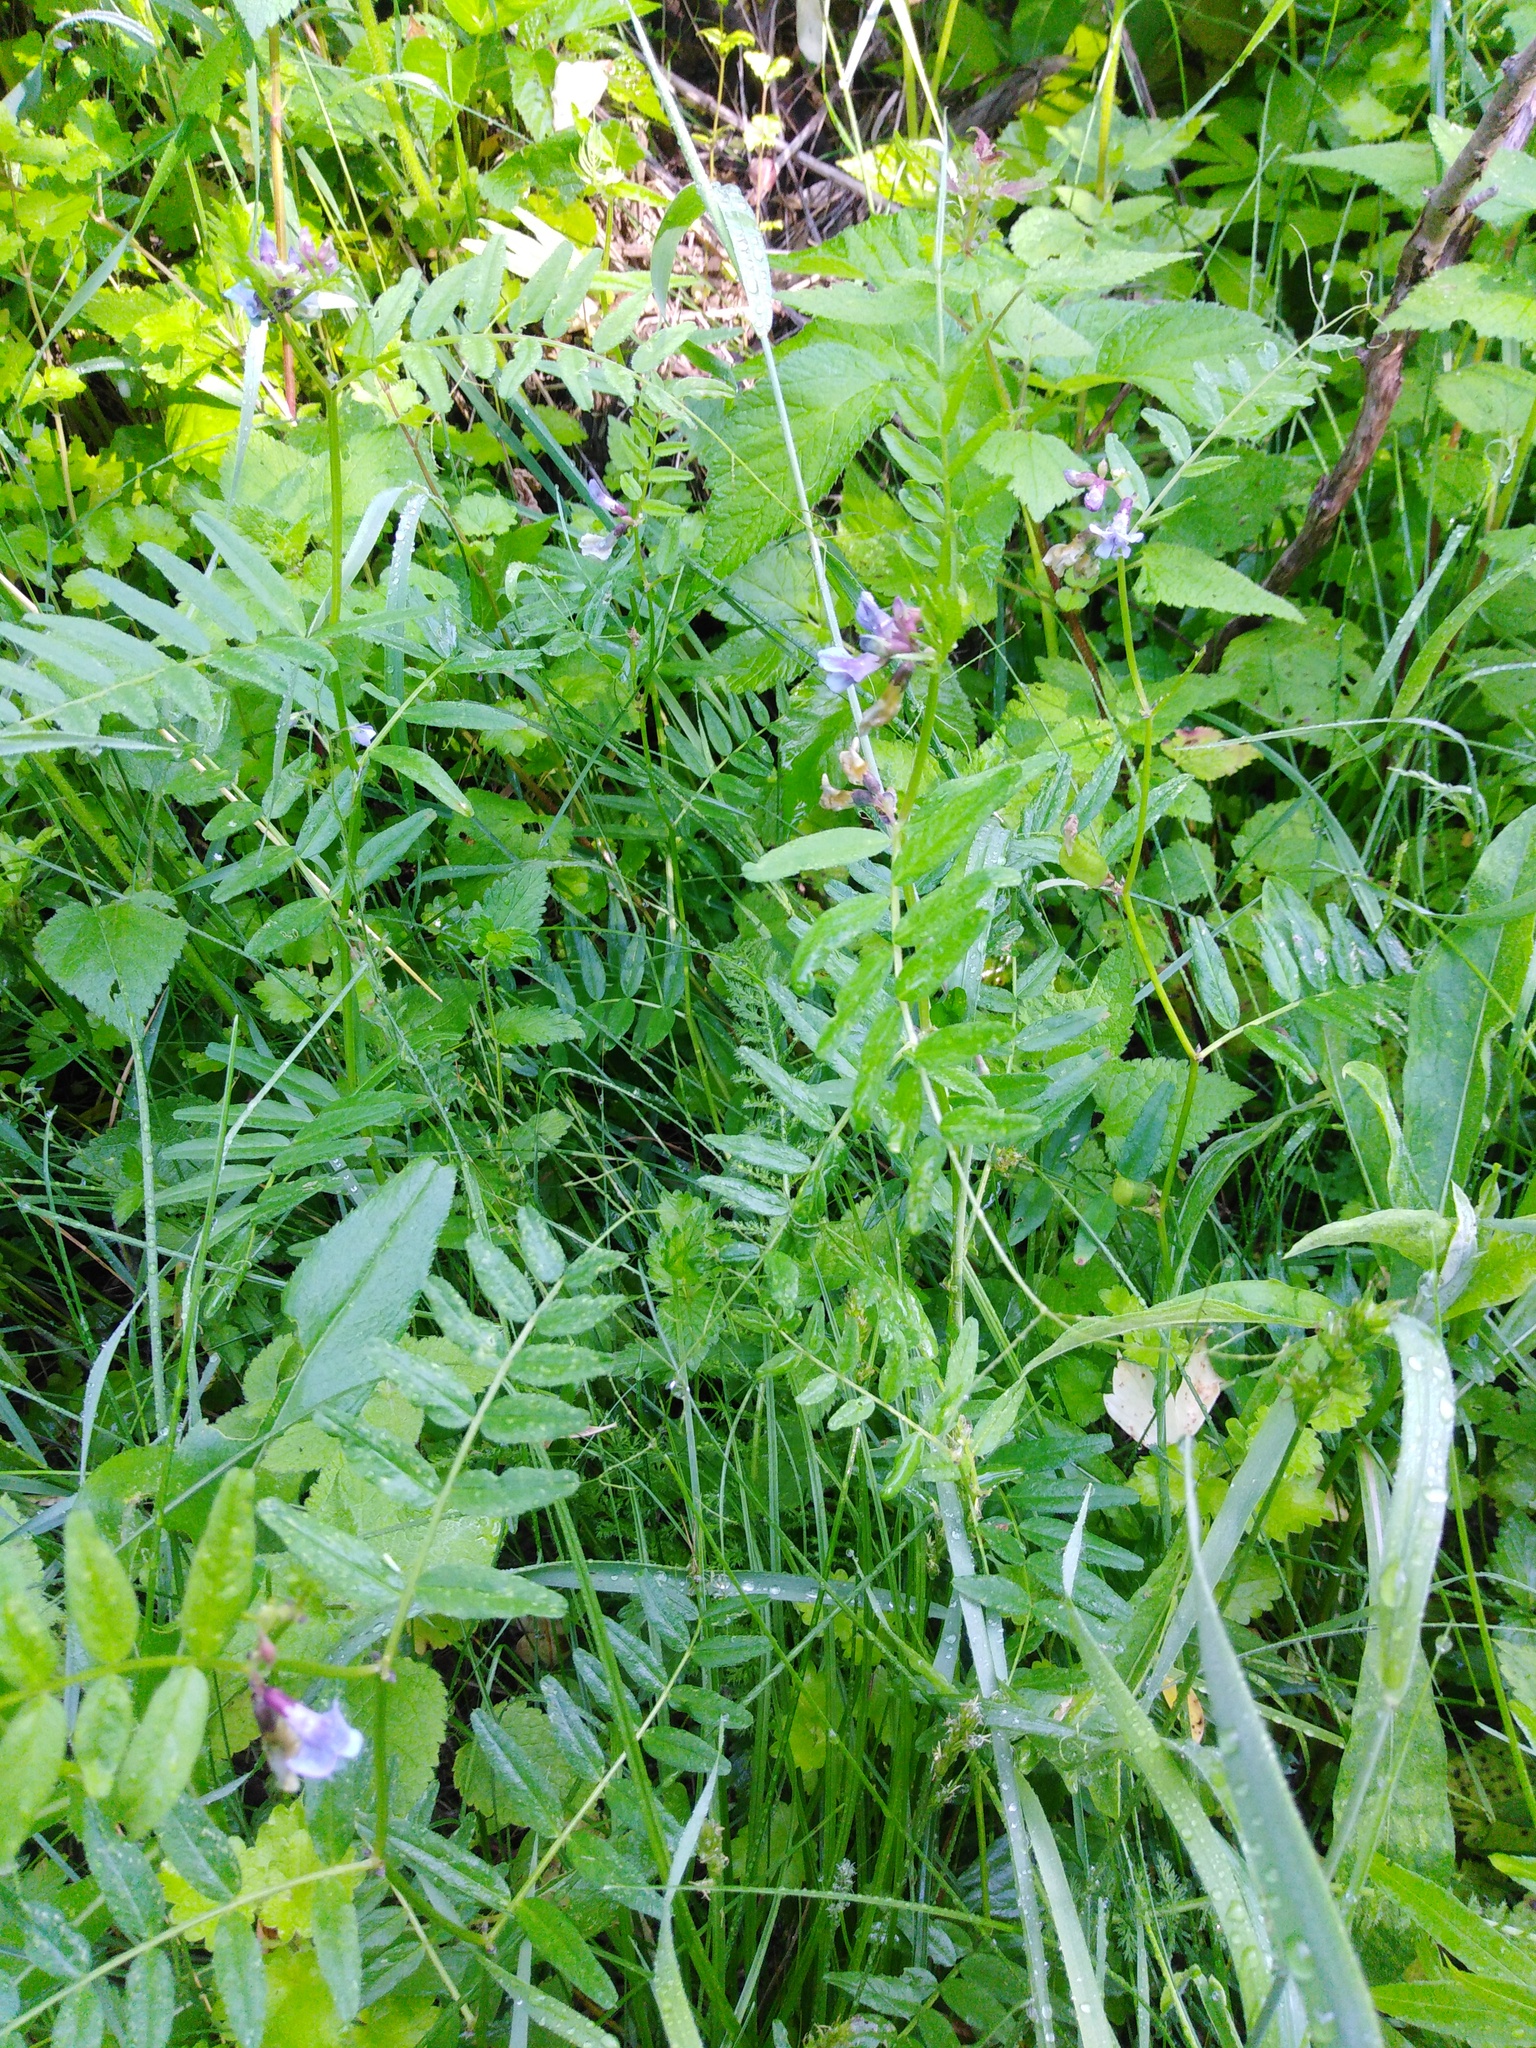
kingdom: Plantae
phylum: Tracheophyta
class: Magnoliopsida
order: Fabales
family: Fabaceae
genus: Vicia
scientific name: Vicia sepium
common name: Bush vetch
